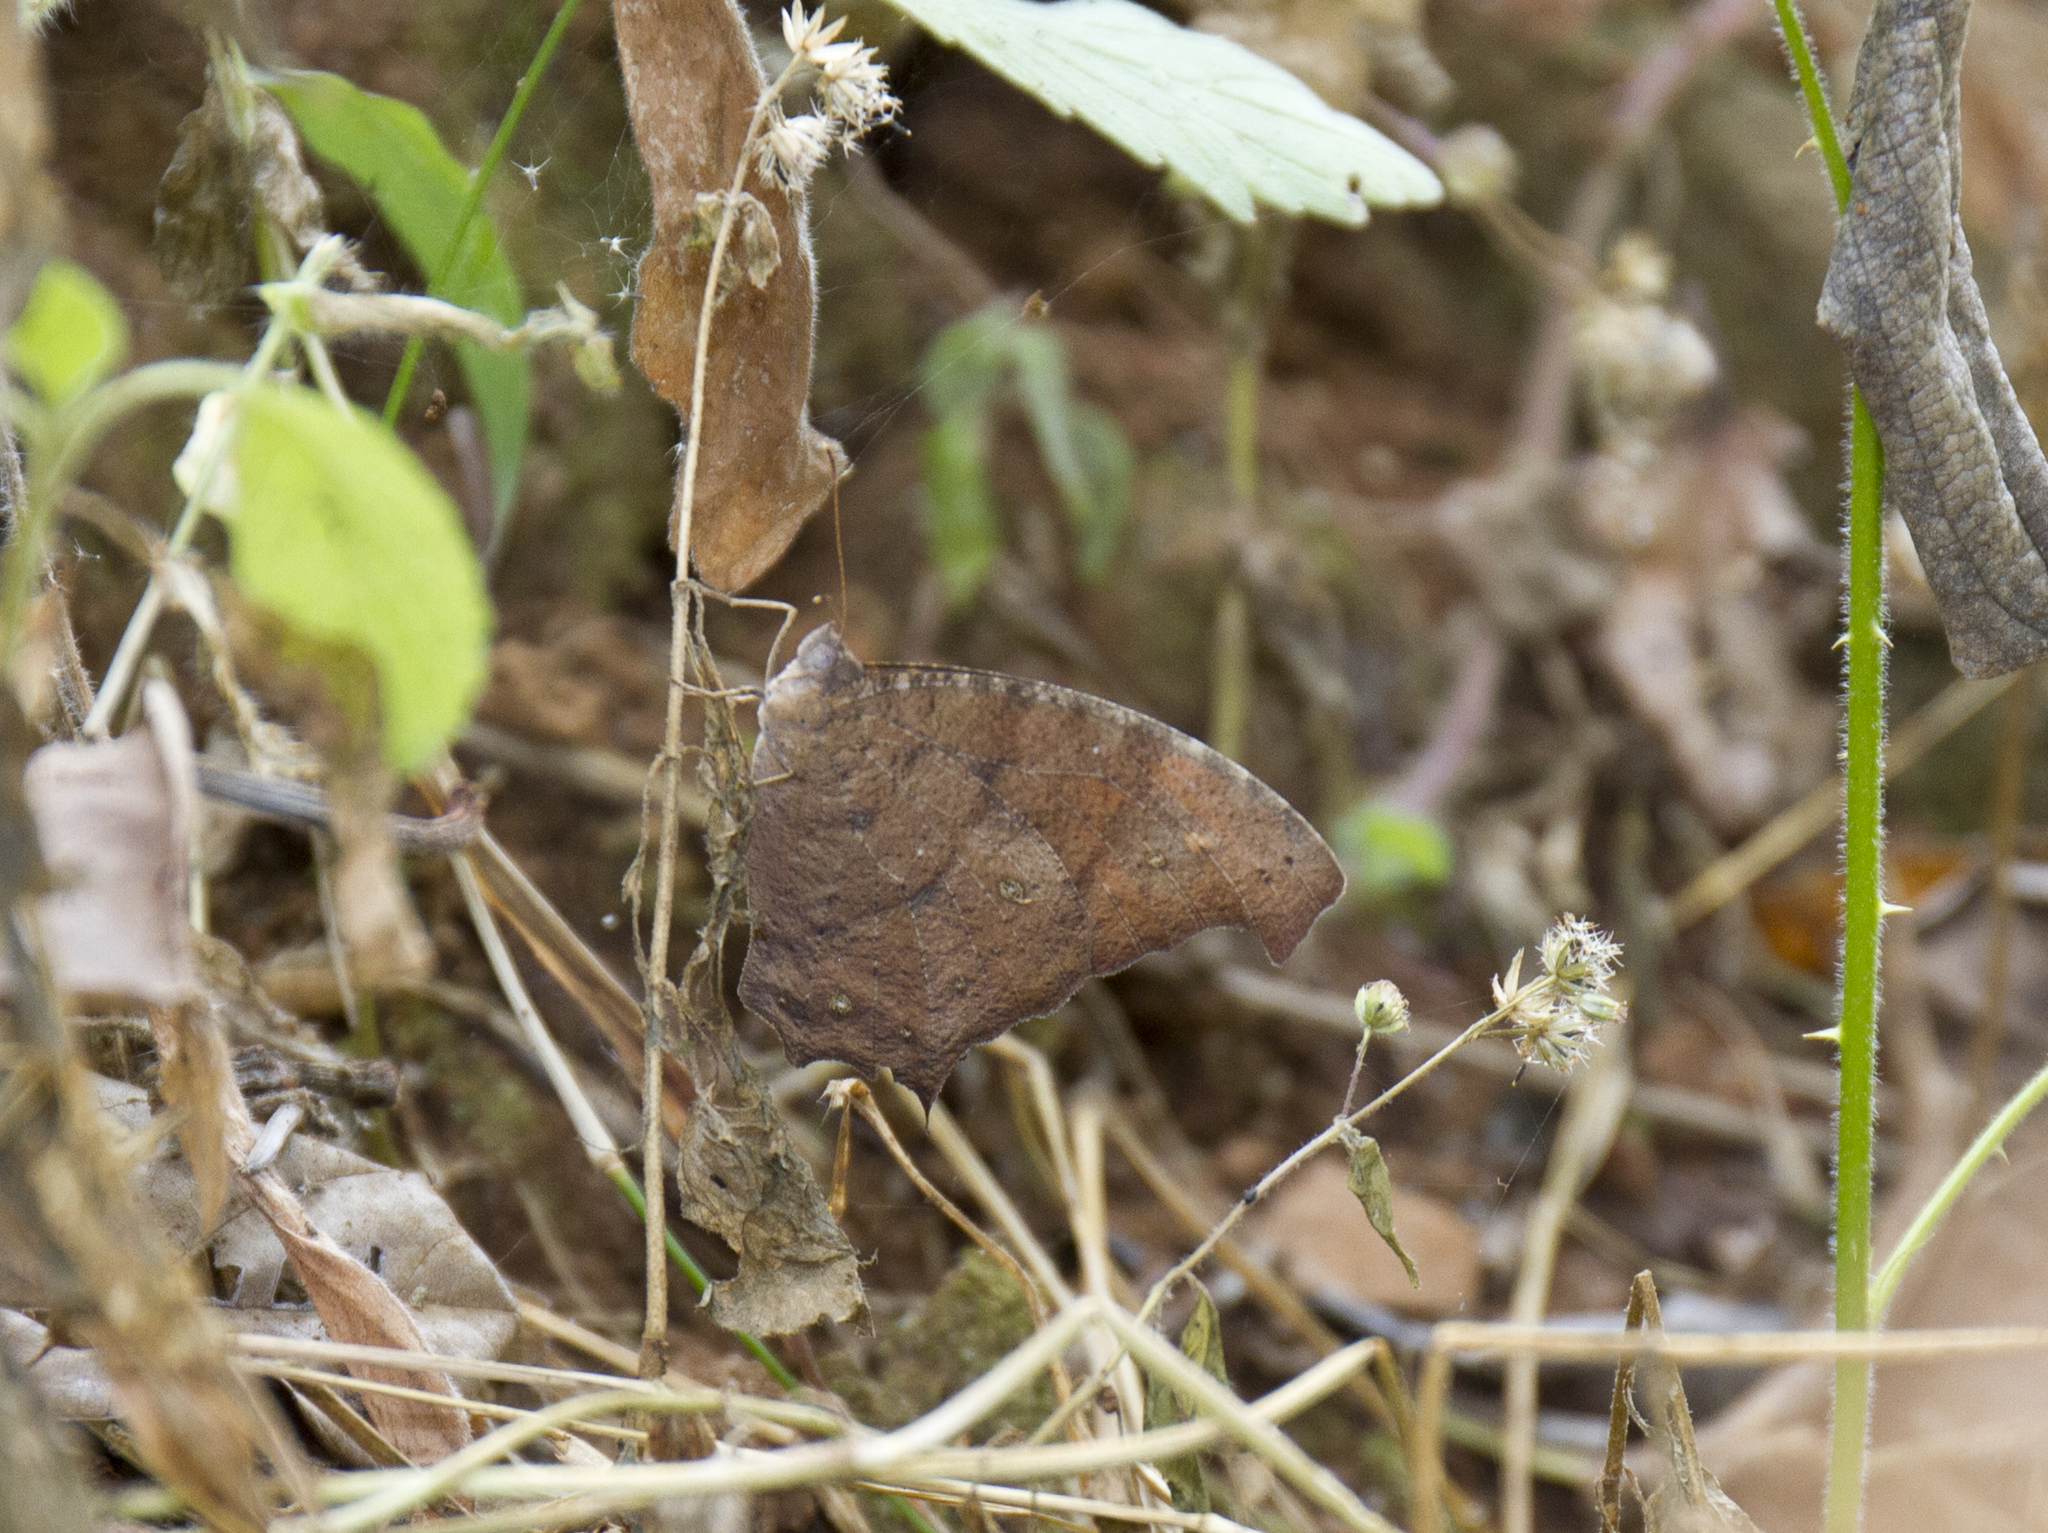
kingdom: Animalia
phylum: Arthropoda
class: Insecta
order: Lepidoptera
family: Nymphalidae
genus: Melanitis
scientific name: Melanitis leda
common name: Twilight brown
